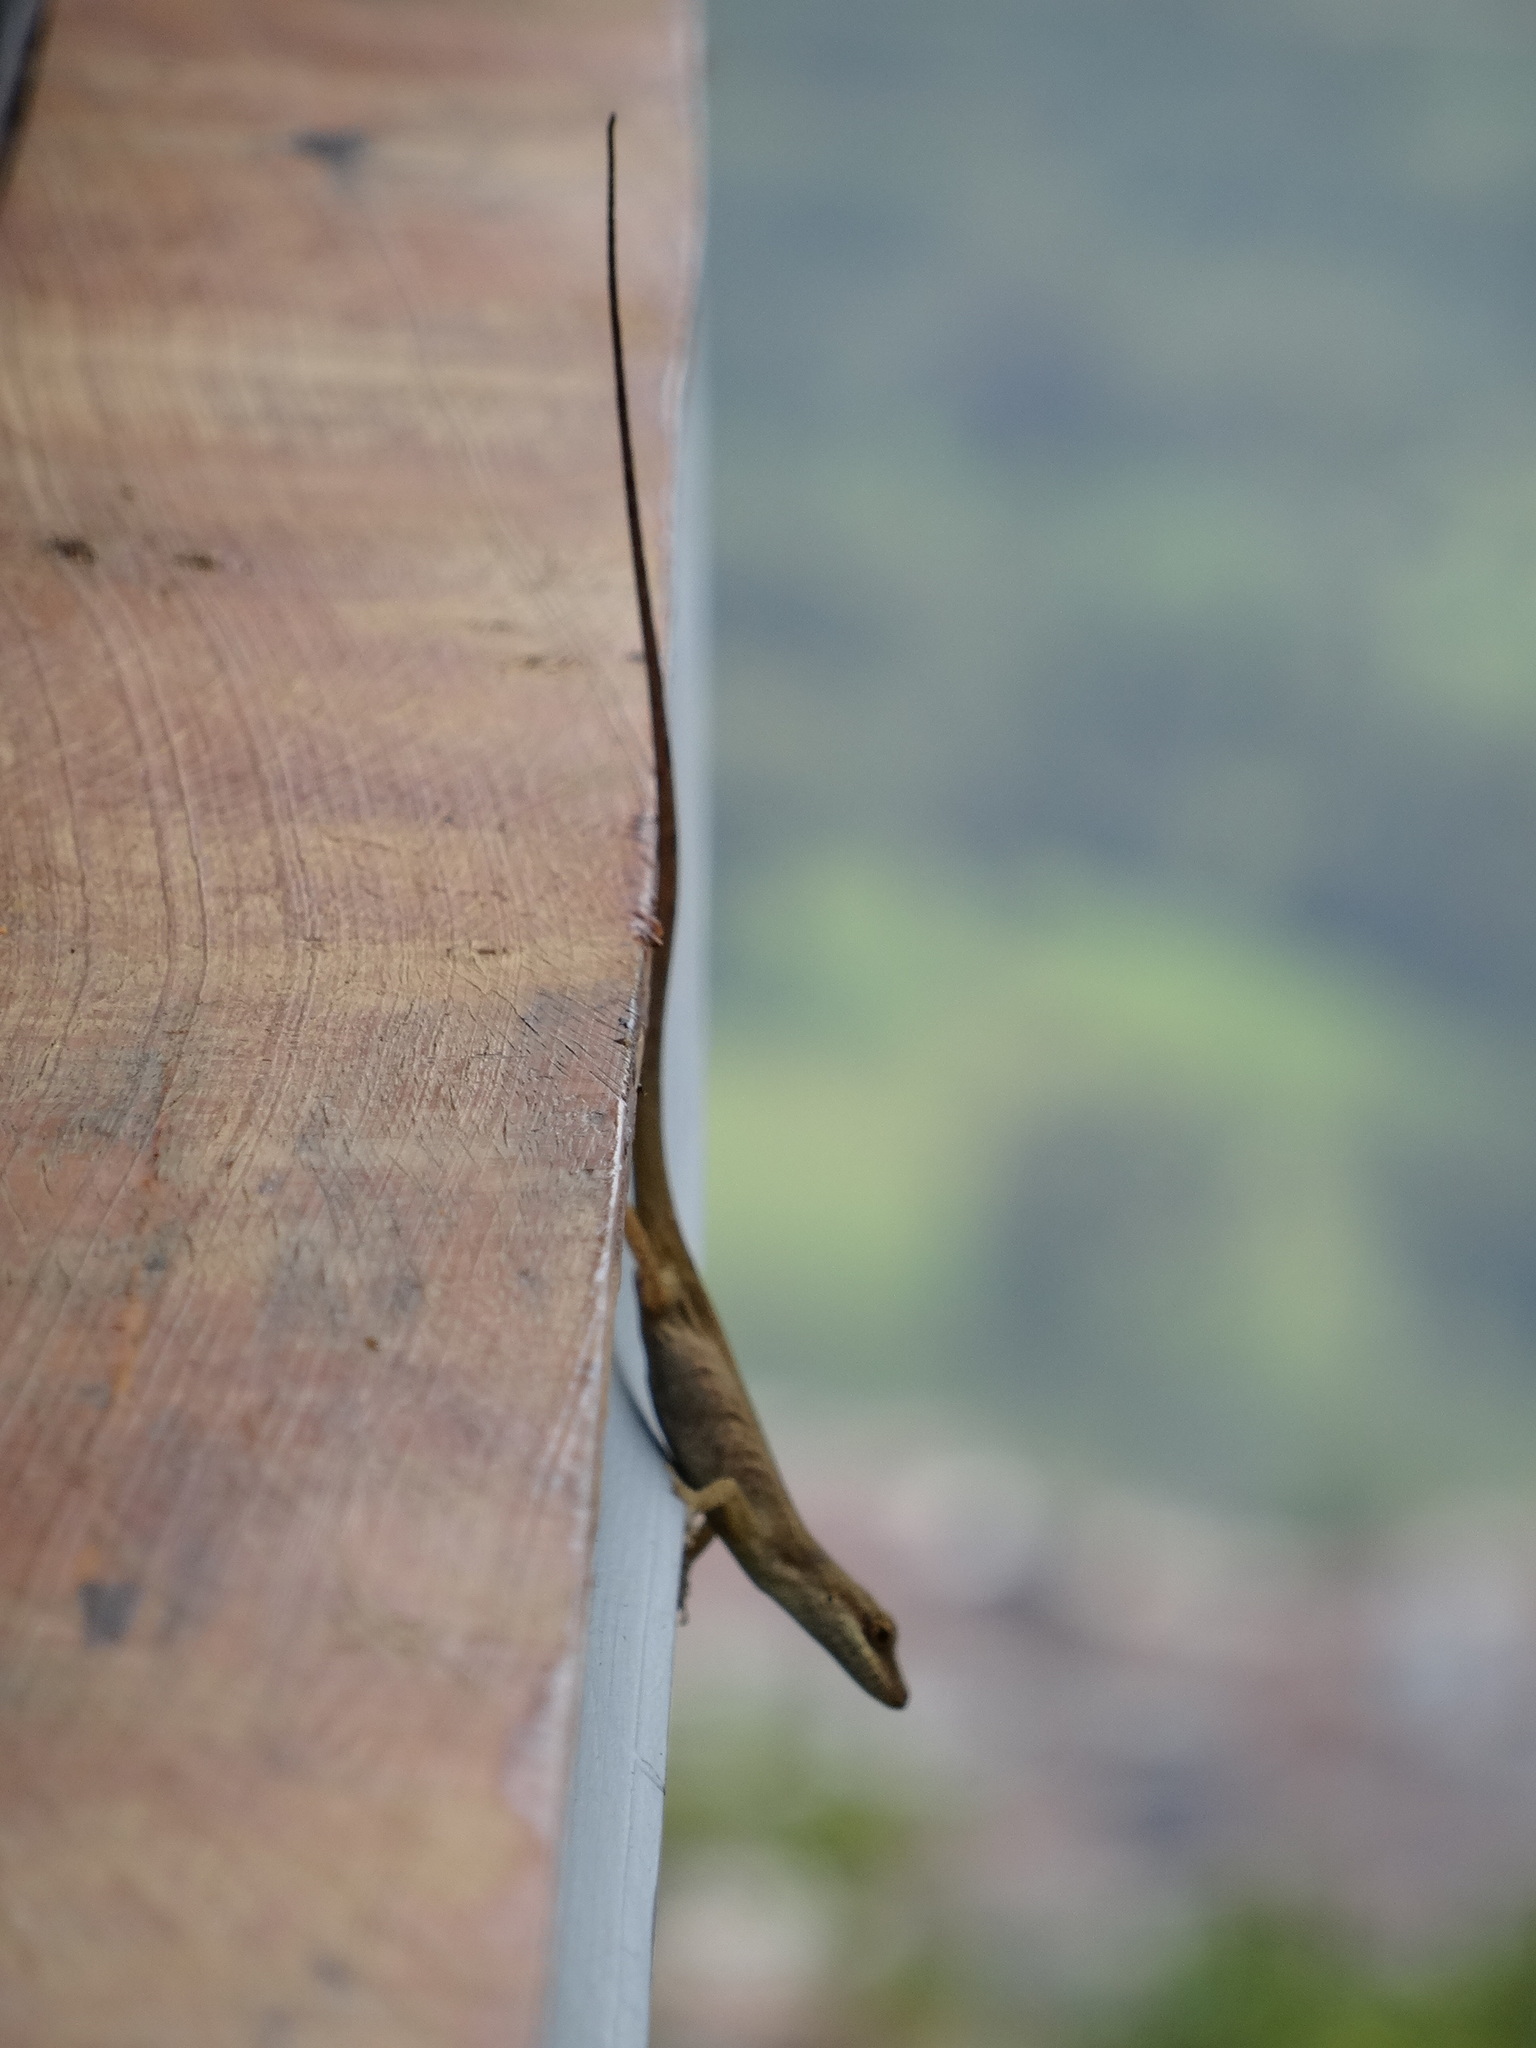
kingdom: Animalia
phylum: Chordata
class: Squamata
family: Dactyloidae
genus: Anolis
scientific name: Anolis mariarum
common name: Blemished anole
